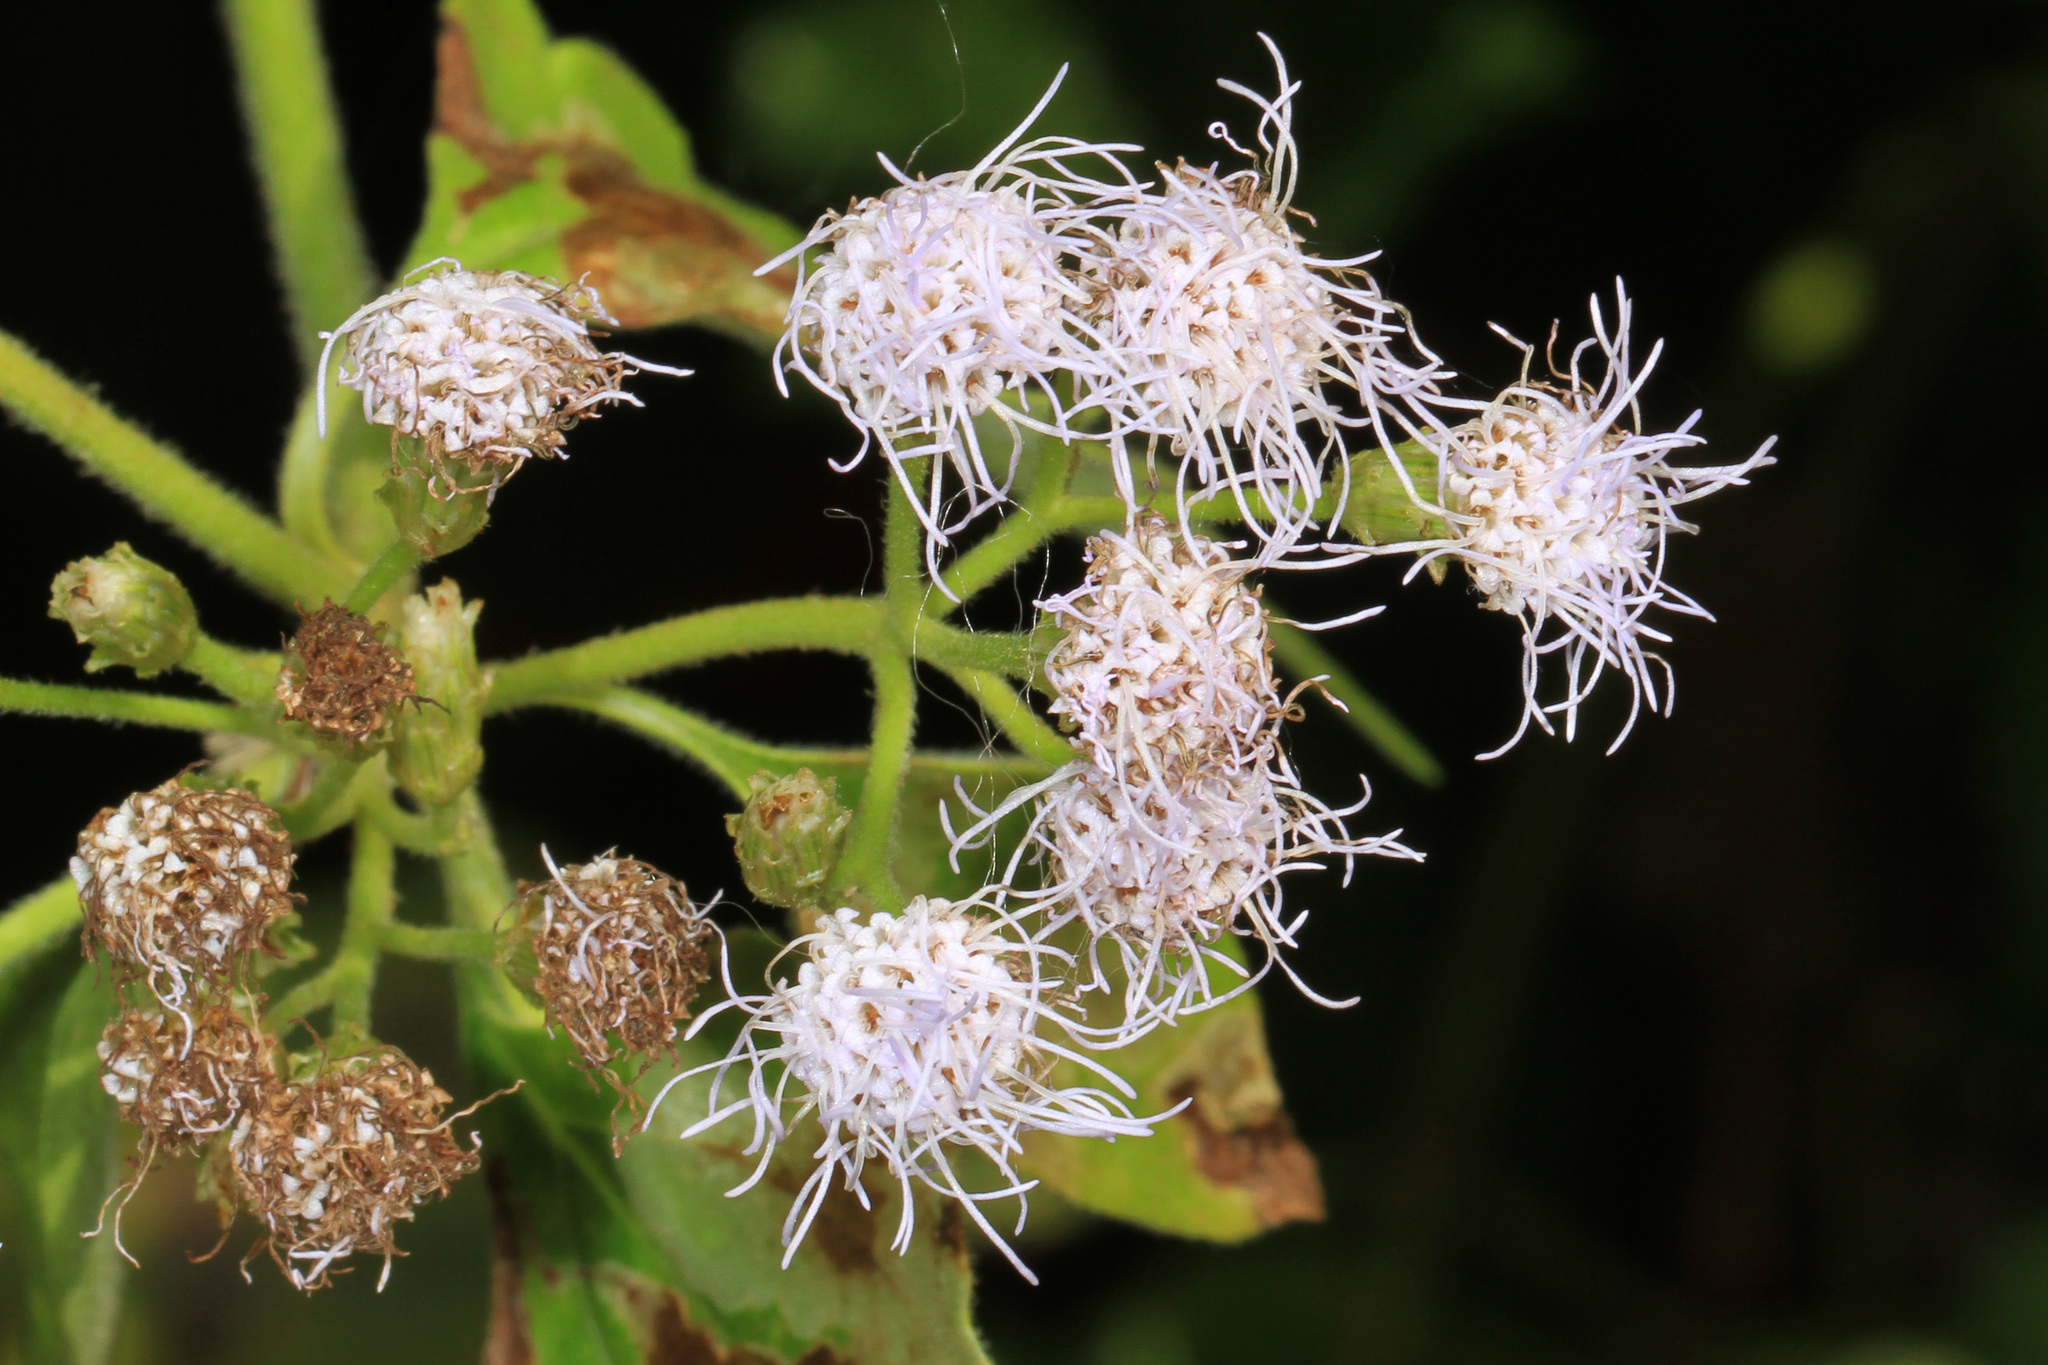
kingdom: Plantae
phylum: Tracheophyta
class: Magnoliopsida
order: Asterales
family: Asteraceae
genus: Chromolaena
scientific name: Chromolaena odorata
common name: Siamweed
